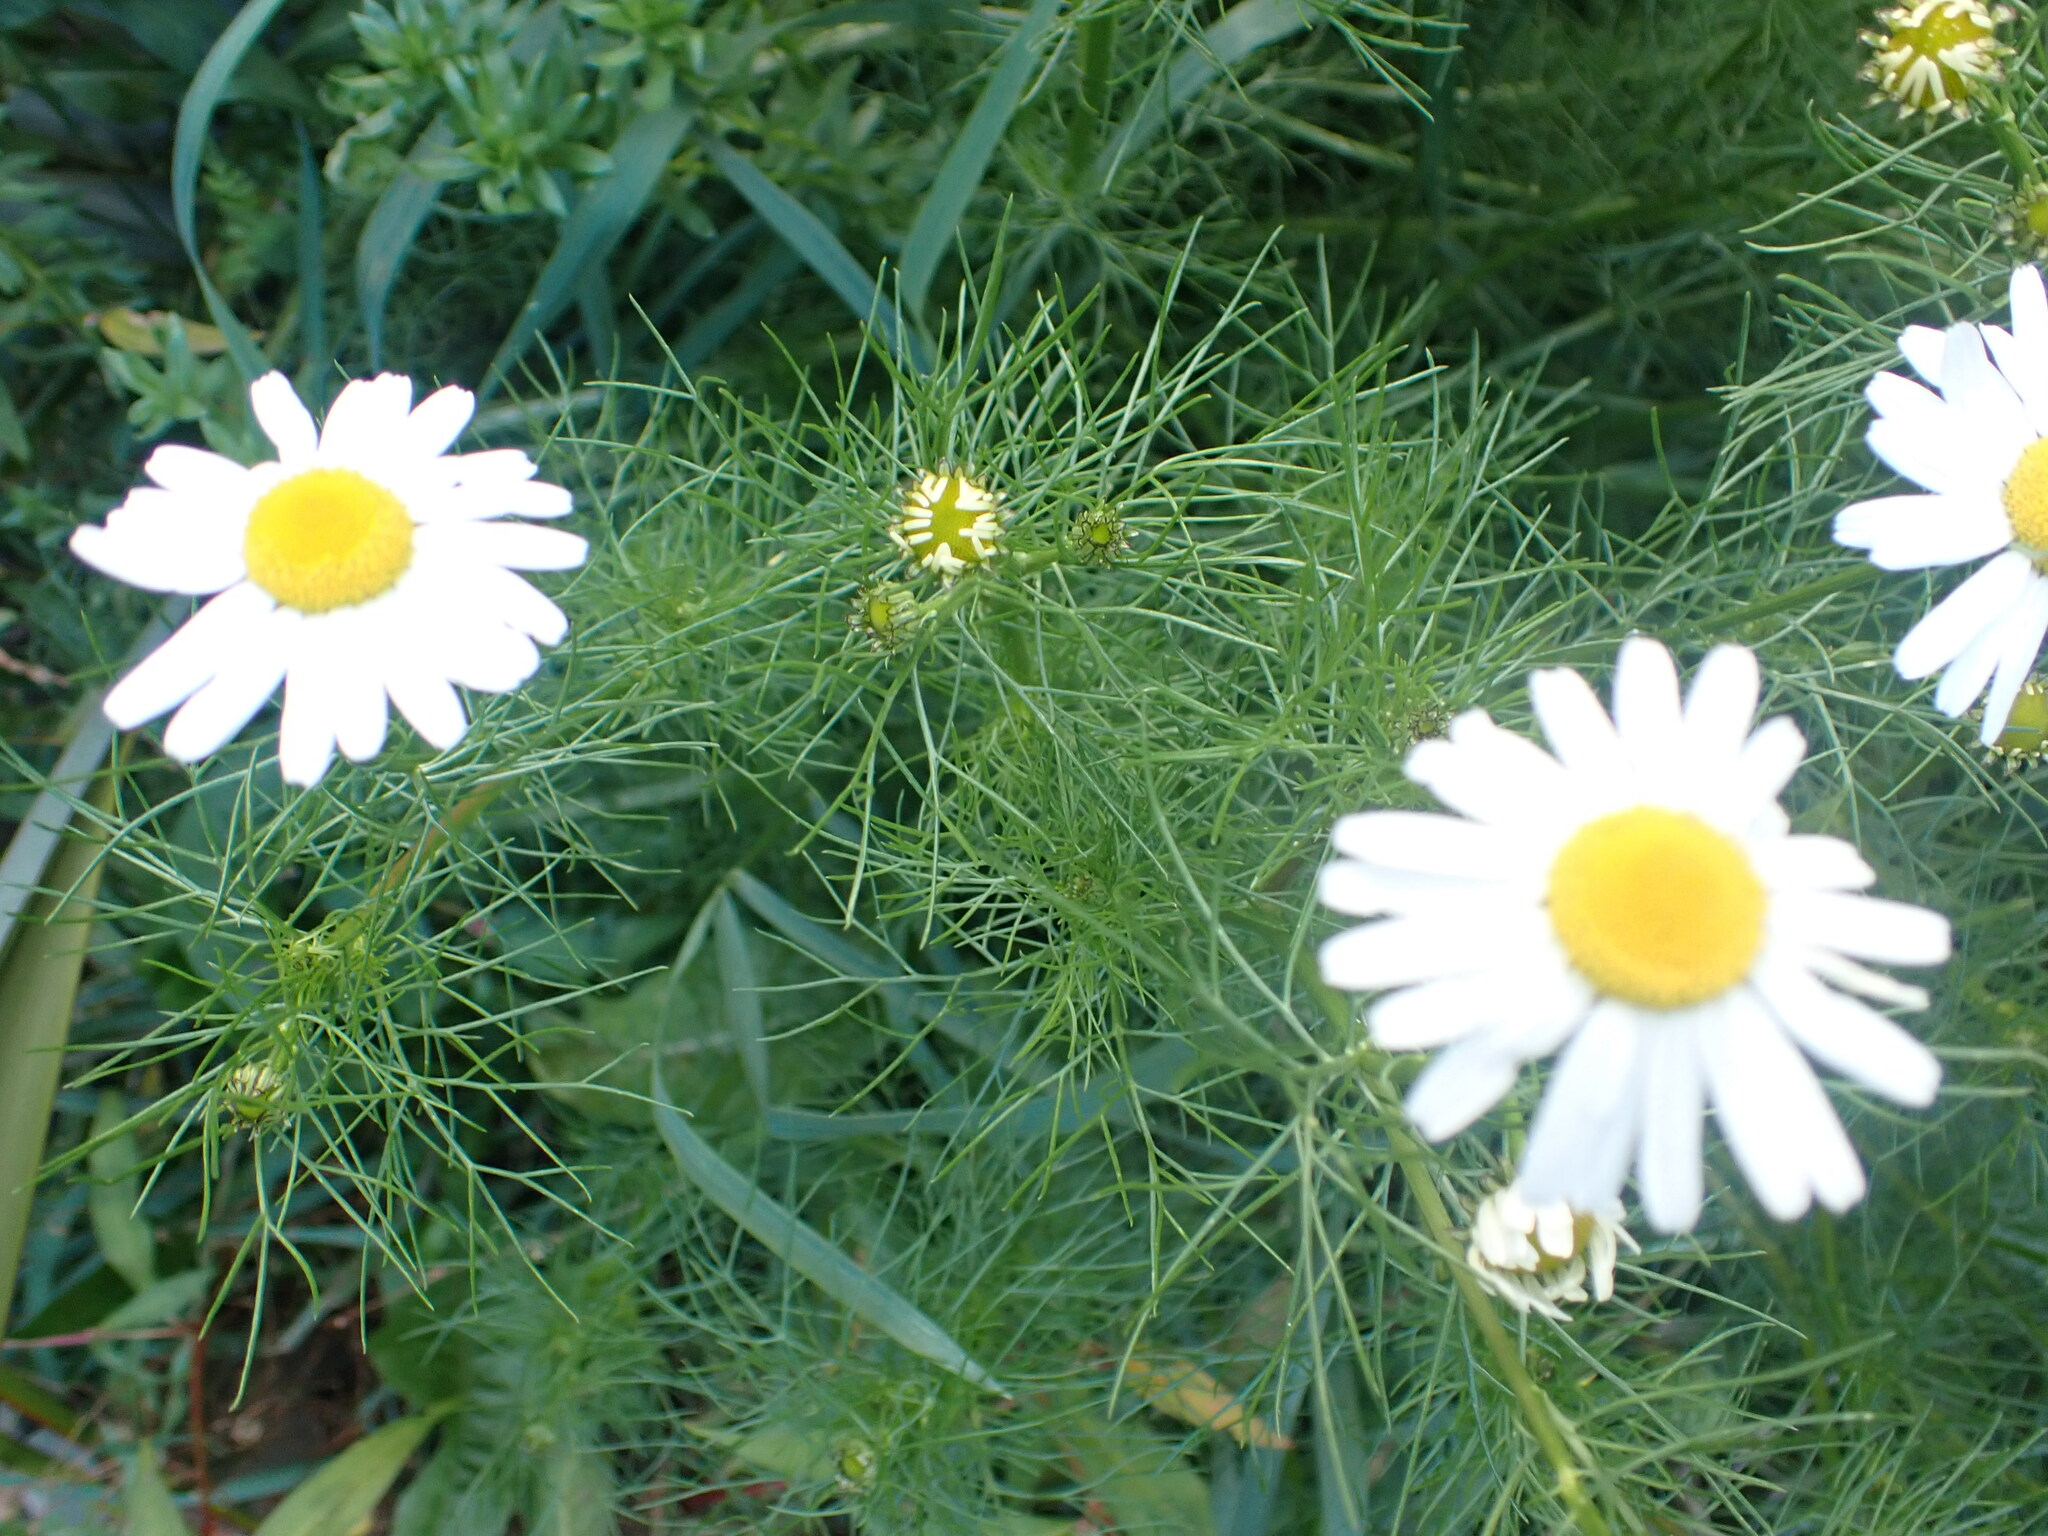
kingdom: Plantae
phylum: Tracheophyta
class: Magnoliopsida
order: Asterales
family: Asteraceae
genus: Tripleurospermum
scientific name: Tripleurospermum inodorum
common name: Scentless mayweed
